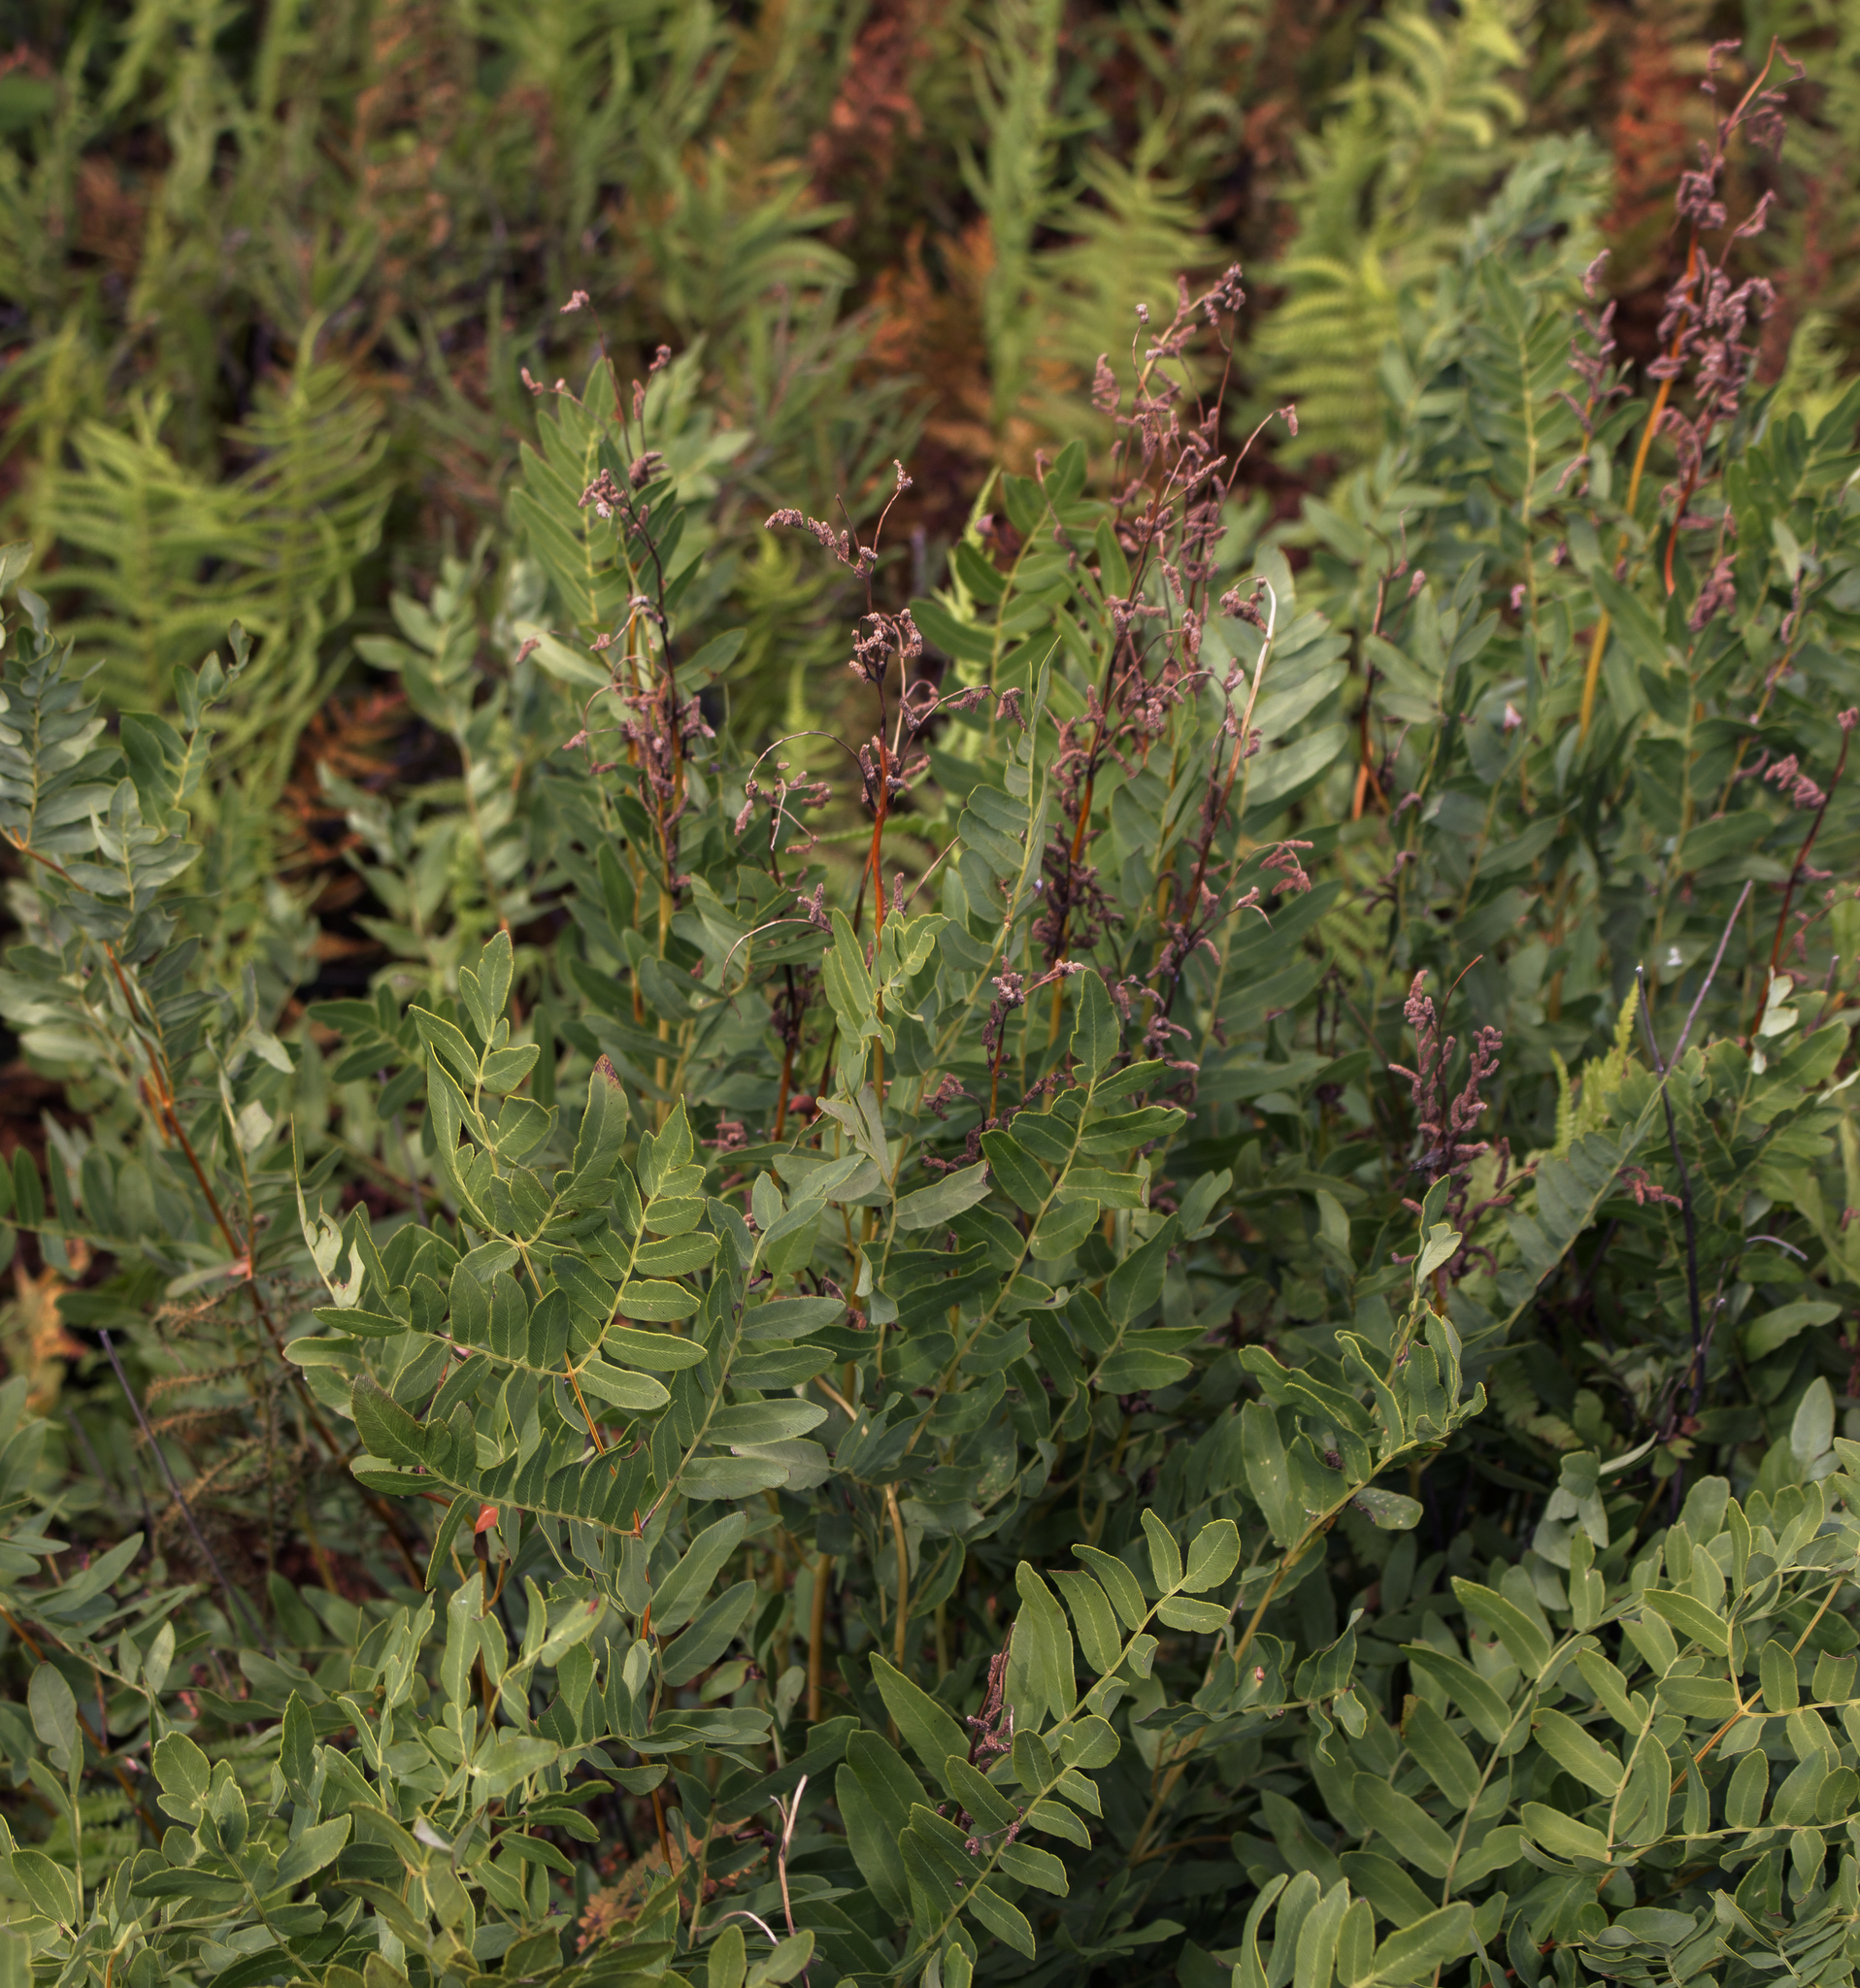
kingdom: Plantae
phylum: Tracheophyta
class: Polypodiopsida
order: Osmundales
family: Osmundaceae
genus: Osmunda
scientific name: Osmunda spectabilis
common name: American royal fern
